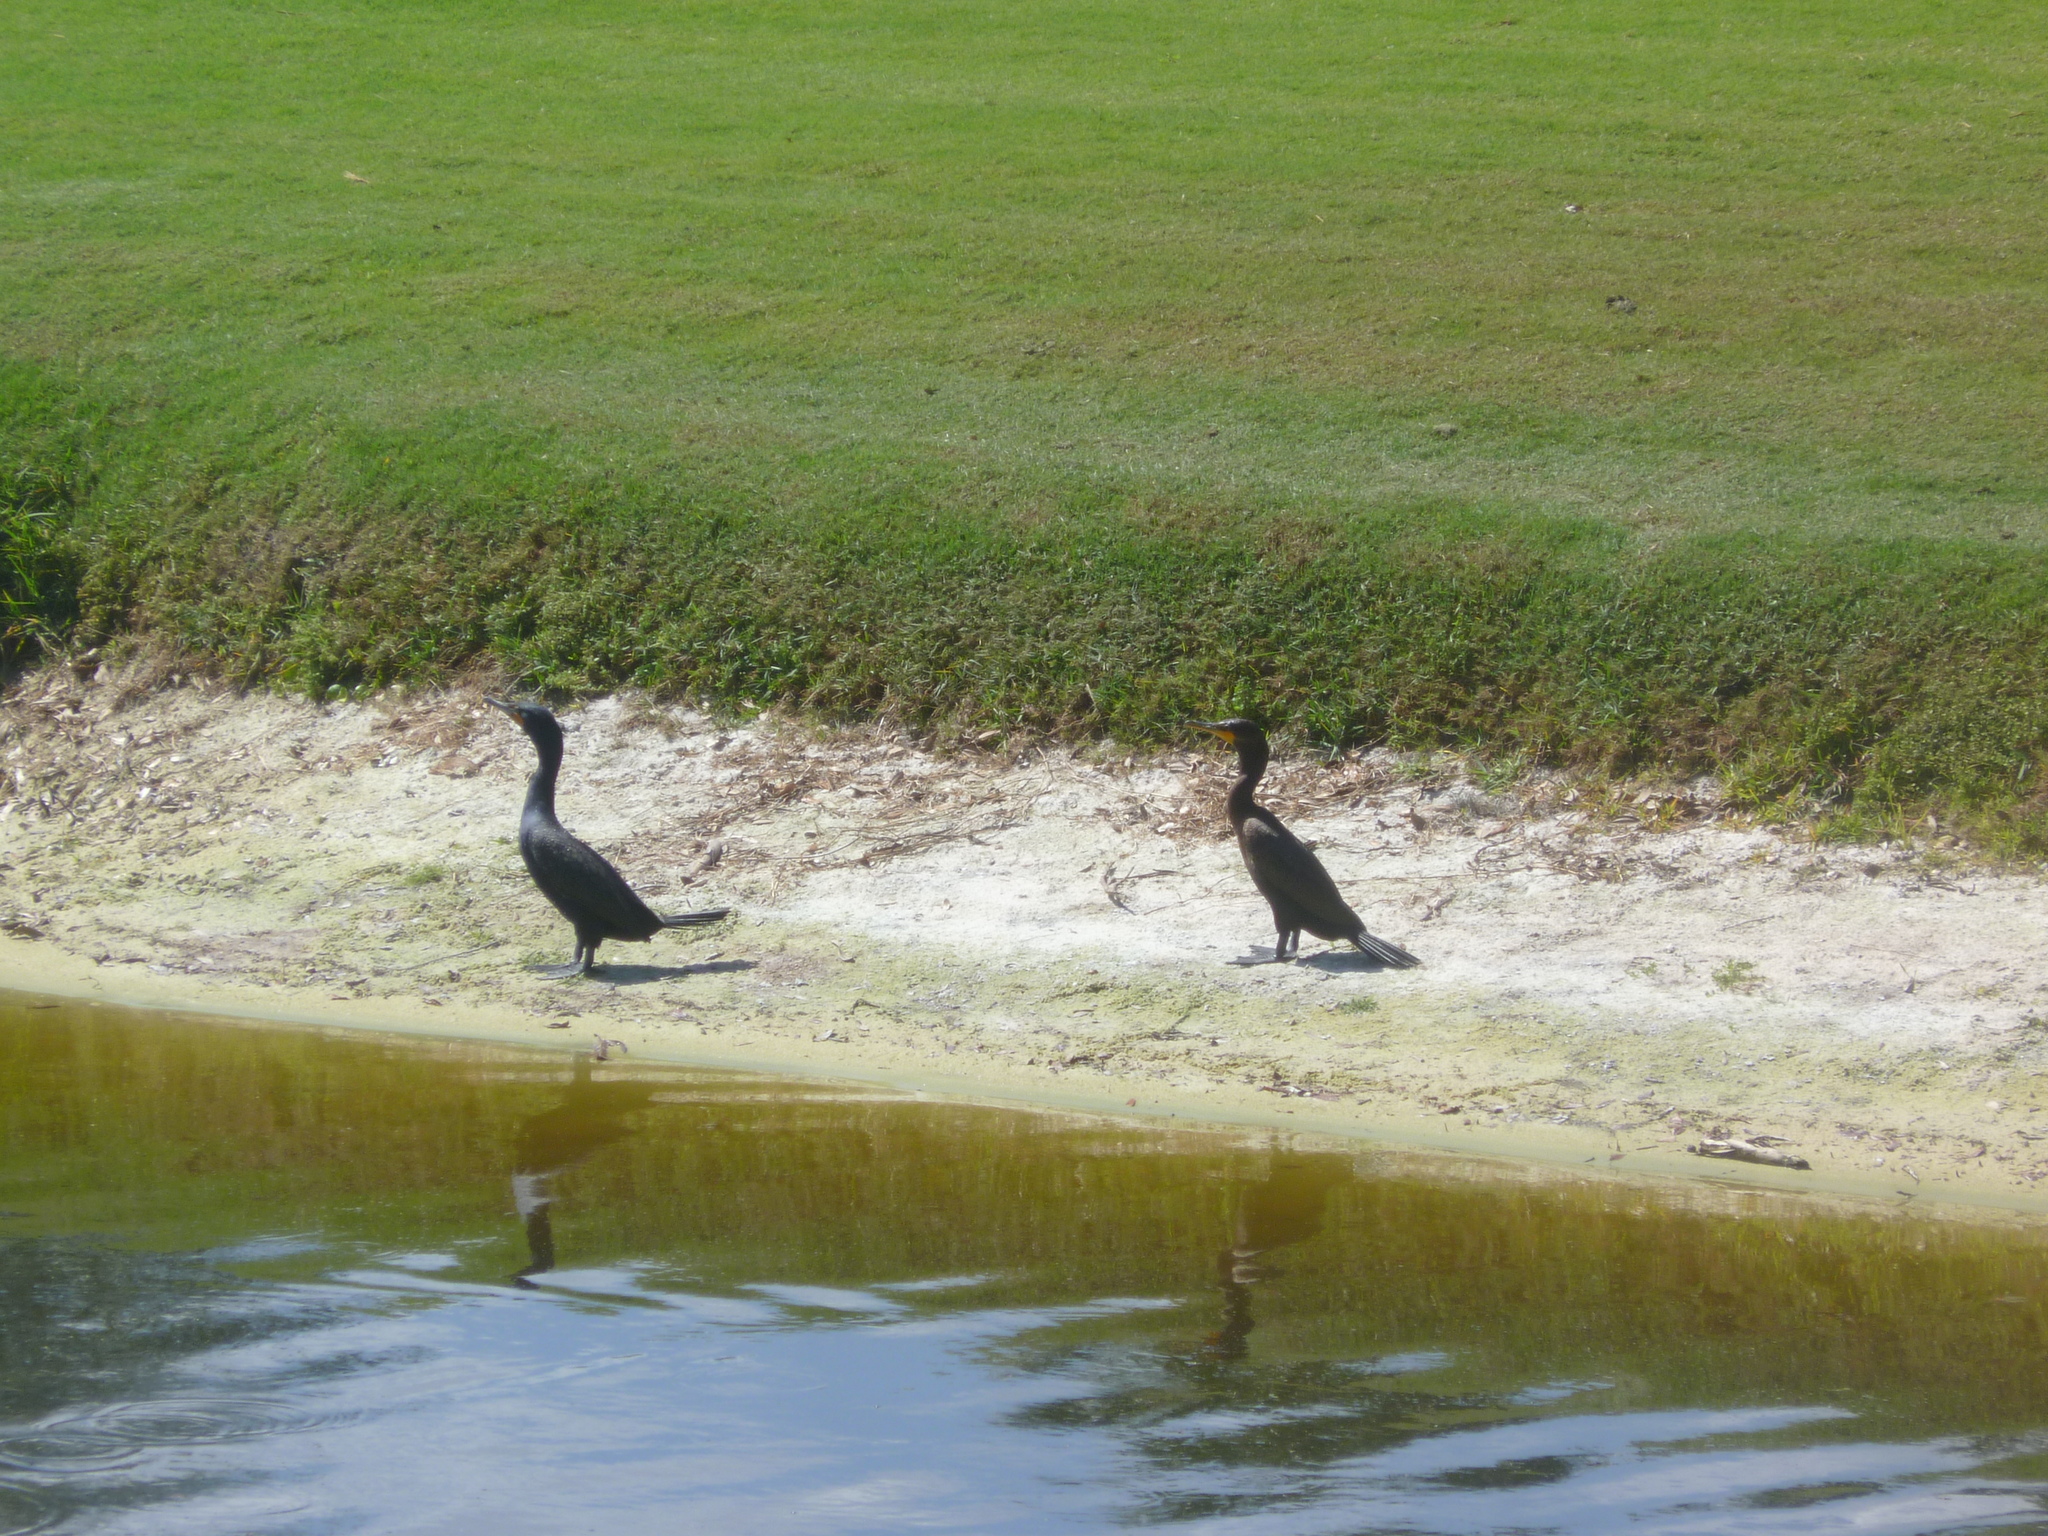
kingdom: Animalia
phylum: Chordata
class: Aves
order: Suliformes
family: Phalacrocoracidae
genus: Phalacrocorax
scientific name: Phalacrocorax auritus
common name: Double-crested cormorant
